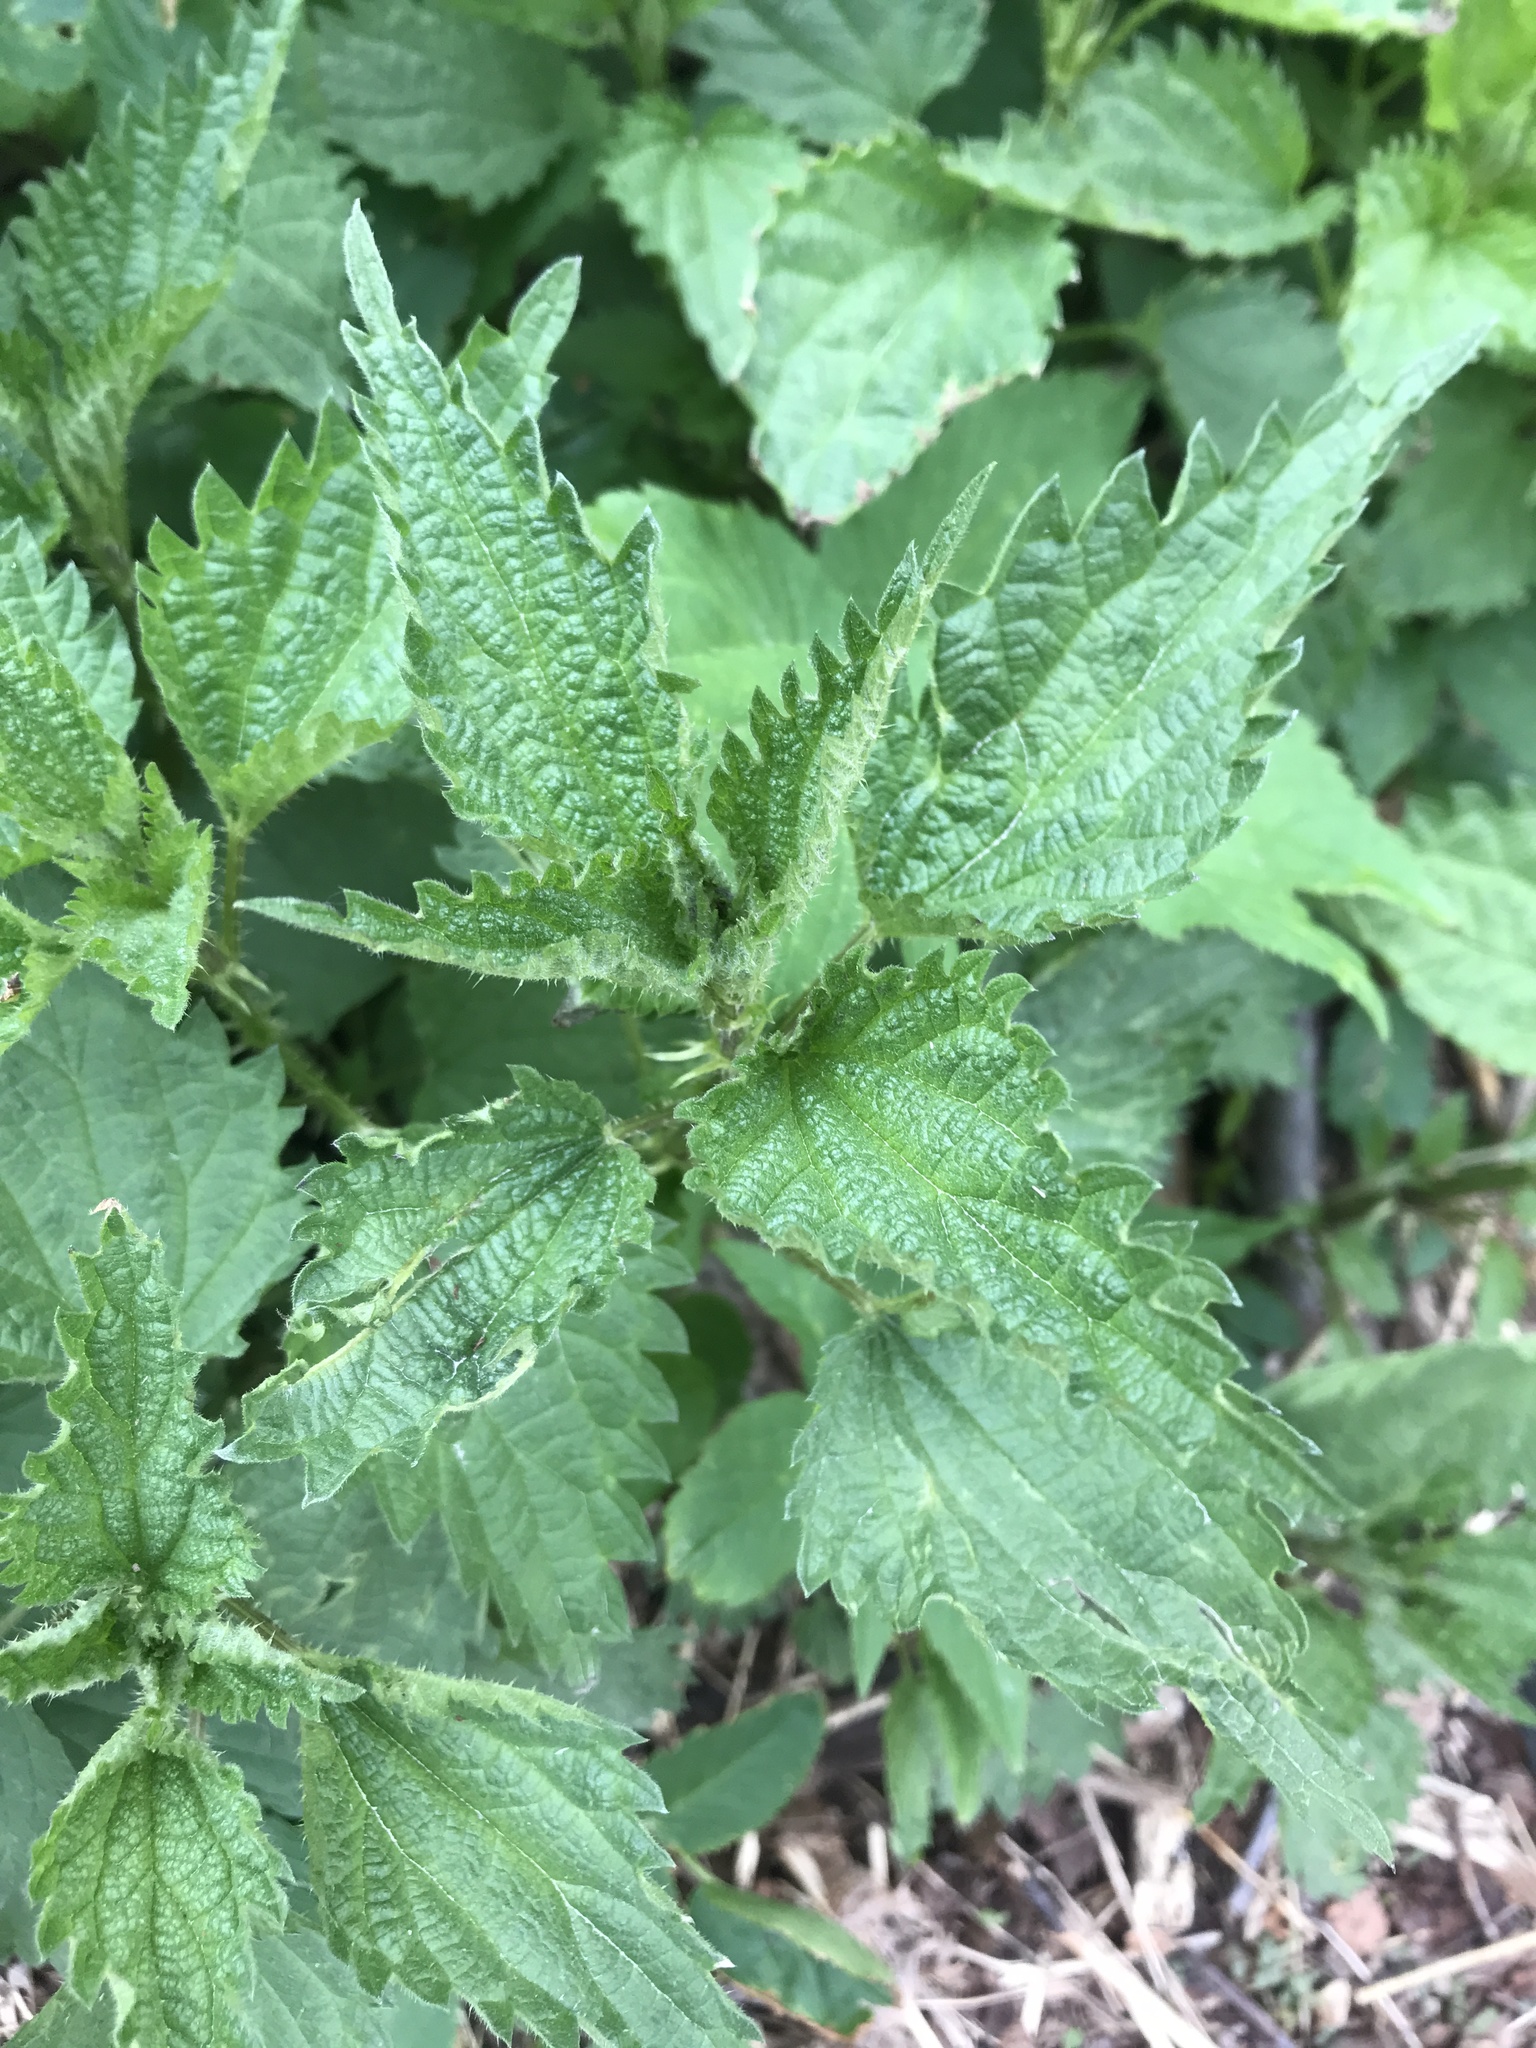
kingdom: Plantae
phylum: Tracheophyta
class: Magnoliopsida
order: Rosales
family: Urticaceae
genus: Urtica
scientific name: Urtica dioica
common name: Common nettle
